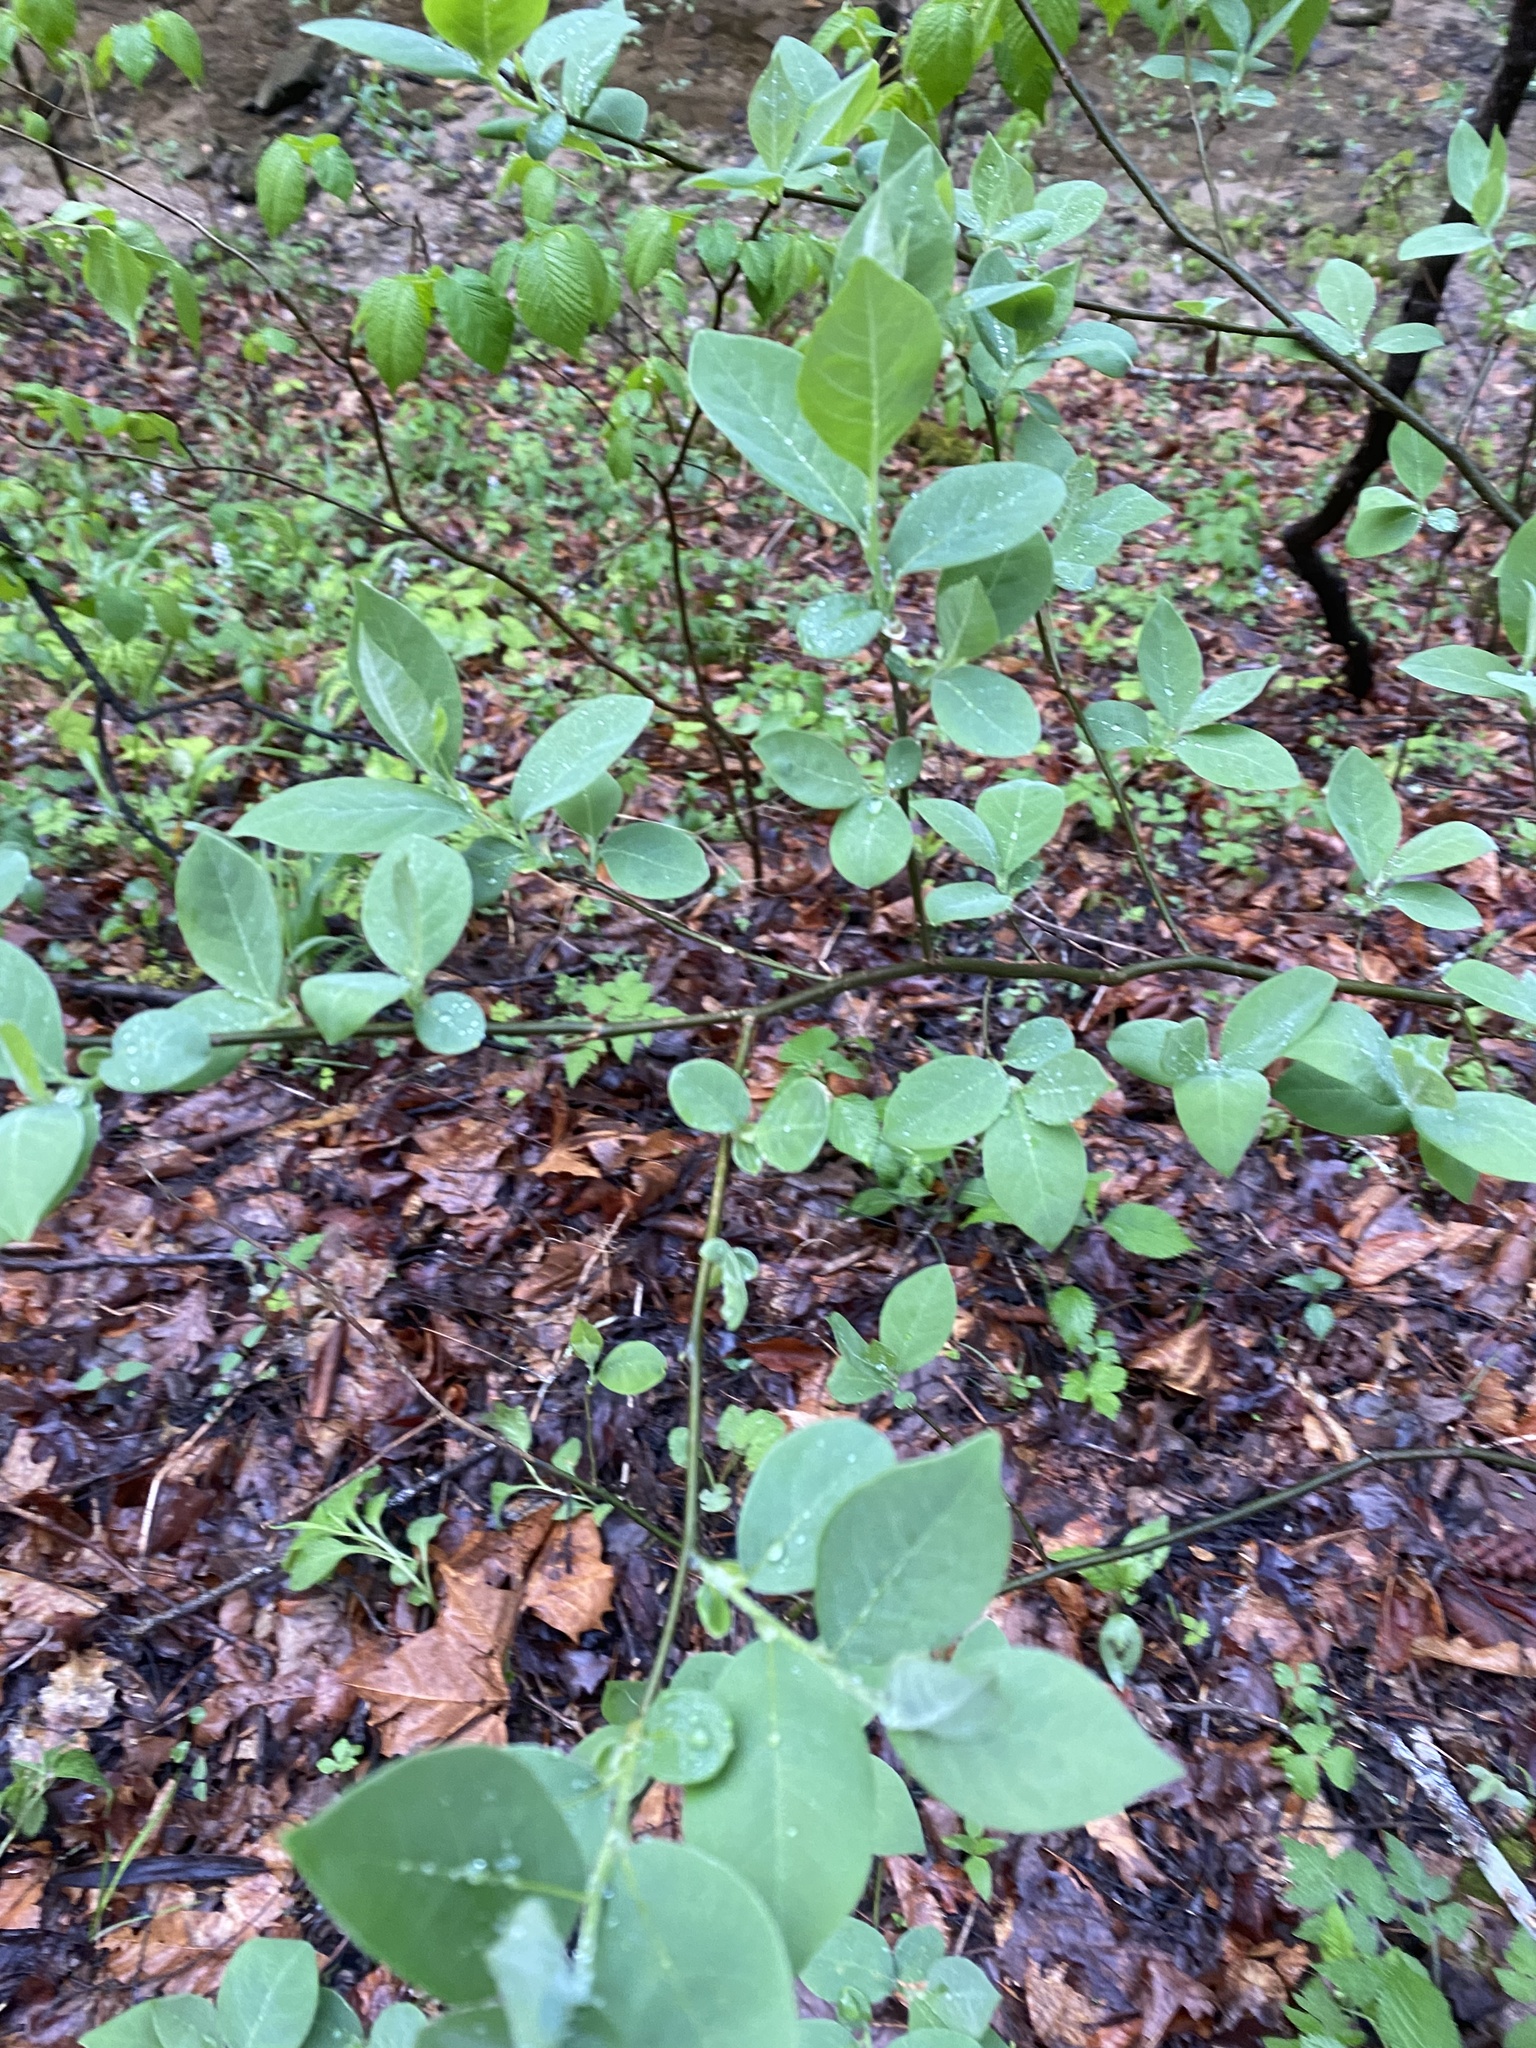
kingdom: Plantae
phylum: Tracheophyta
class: Magnoliopsida
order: Laurales
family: Lauraceae
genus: Lindera
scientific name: Lindera benzoin
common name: Spicebush
